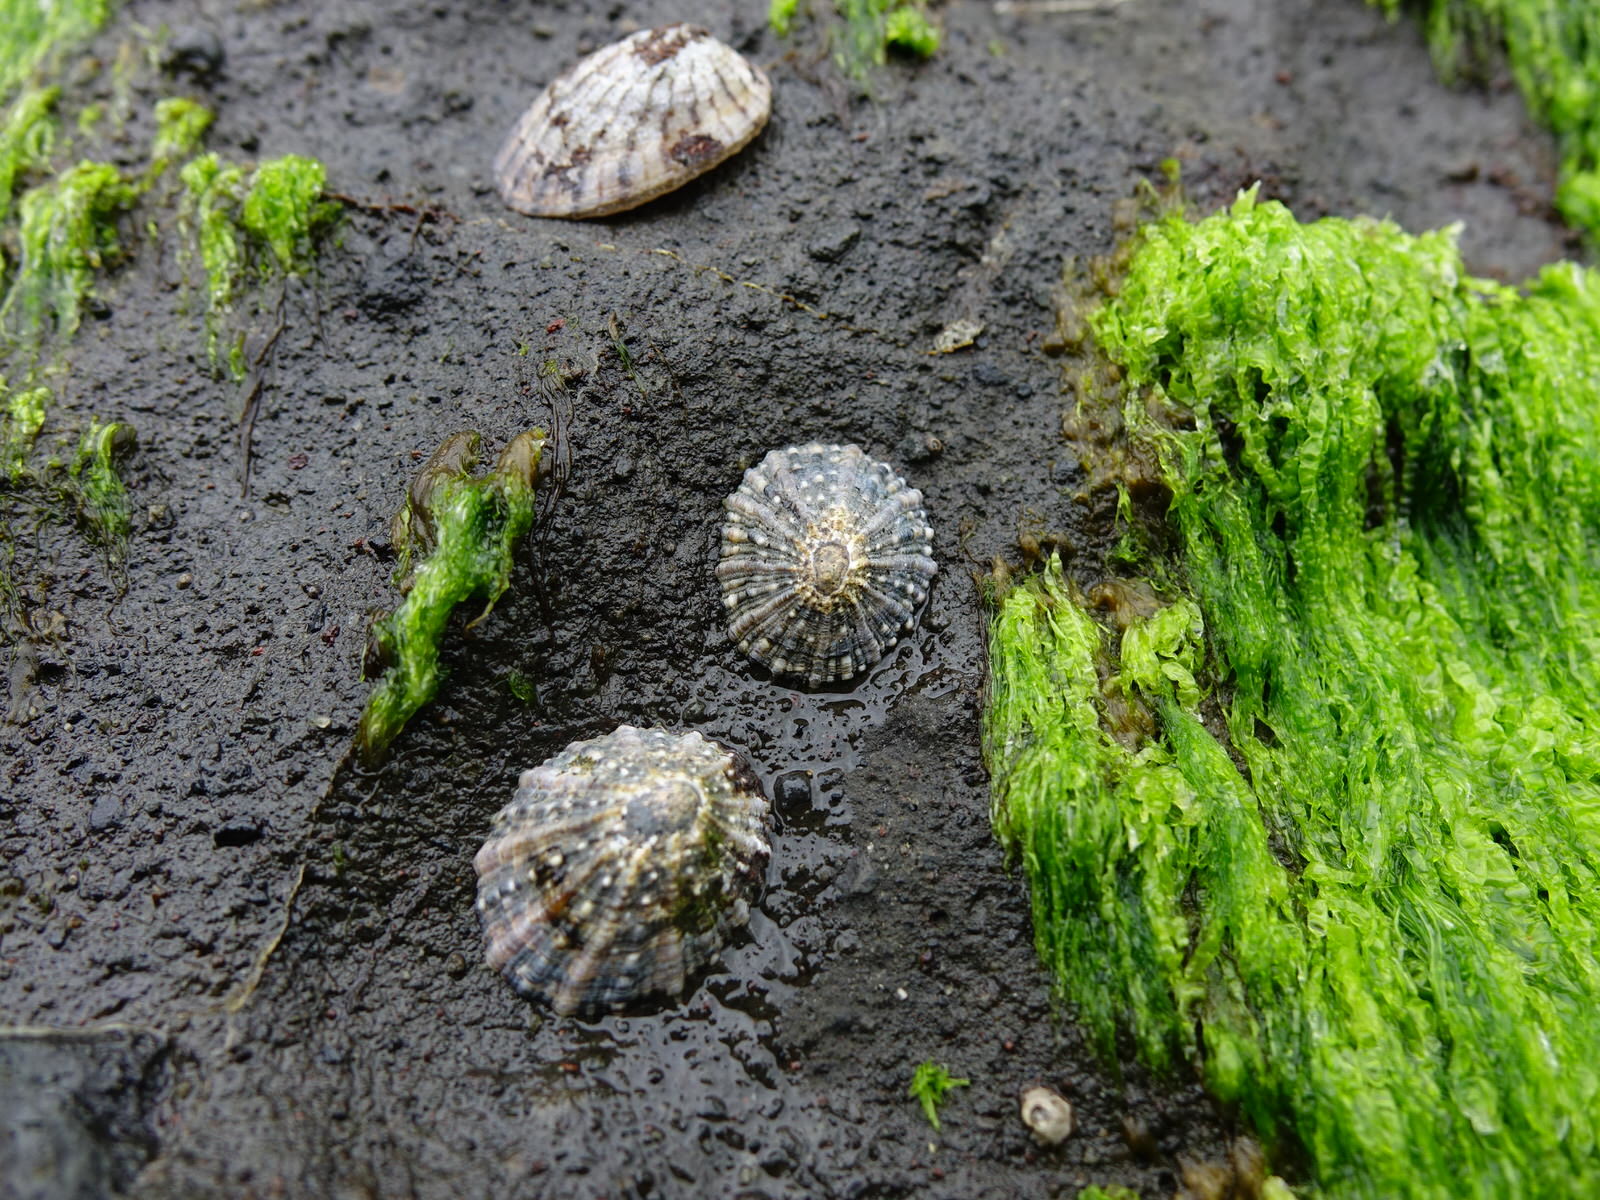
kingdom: Animalia
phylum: Mollusca
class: Gastropoda
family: Nacellidae
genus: Cellana
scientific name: Cellana ornata
